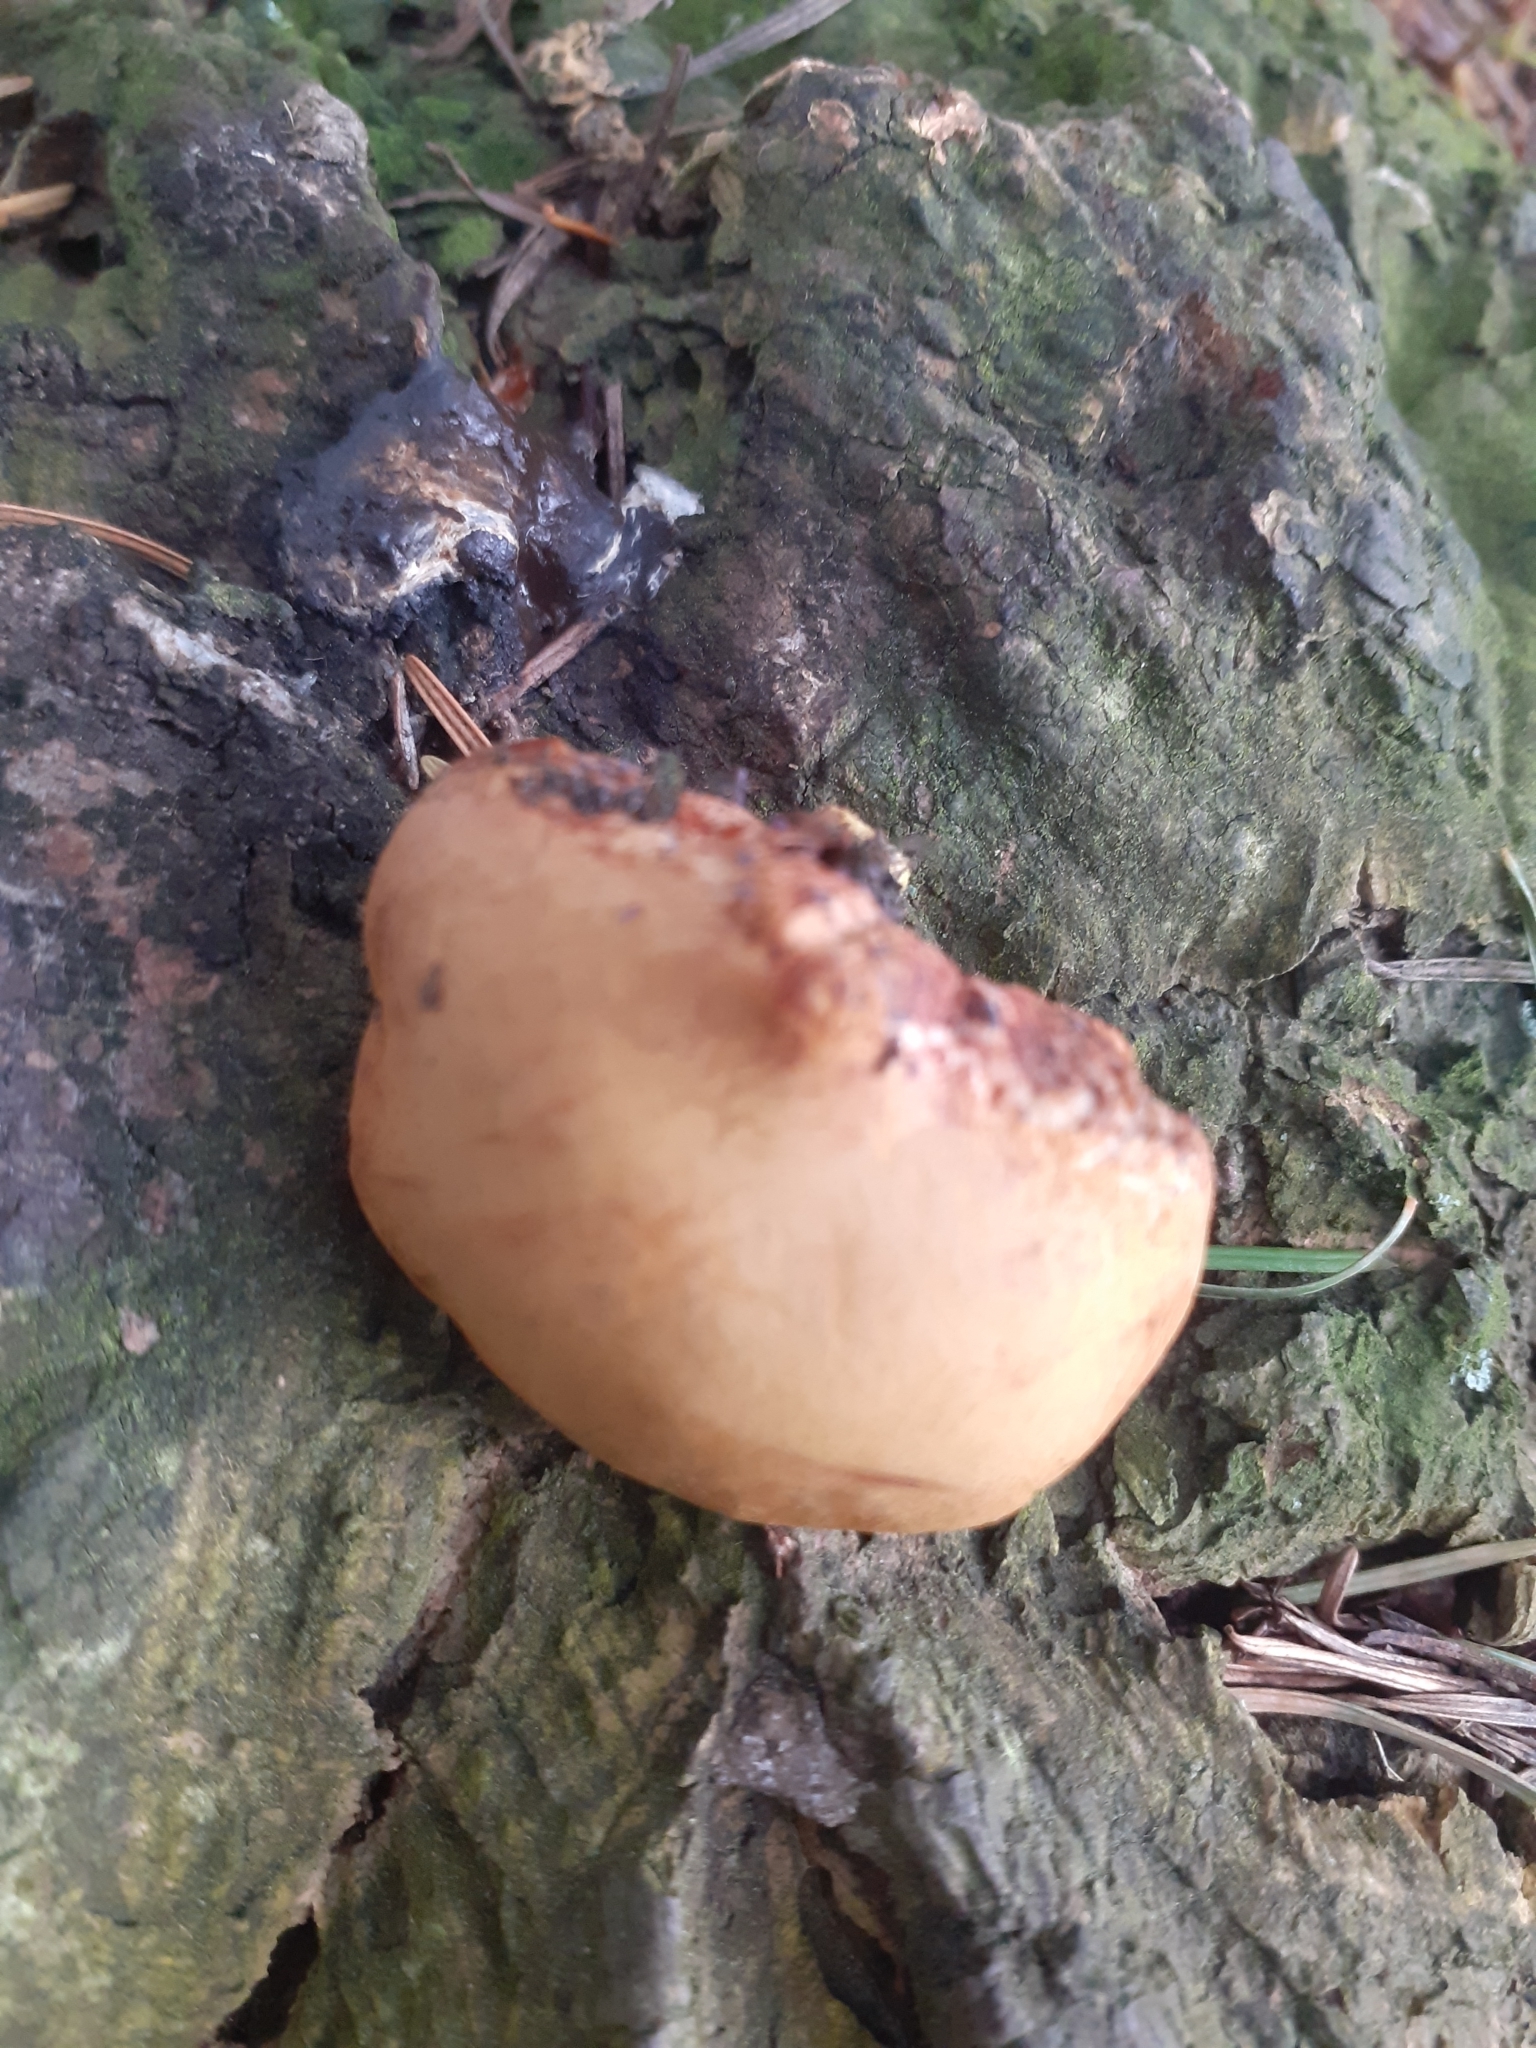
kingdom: Fungi
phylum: Basidiomycota
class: Agaricomycetes
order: Boletales
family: Boletaceae
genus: Chalciporus
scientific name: Chalciporus piperatus
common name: Peppery bolete
